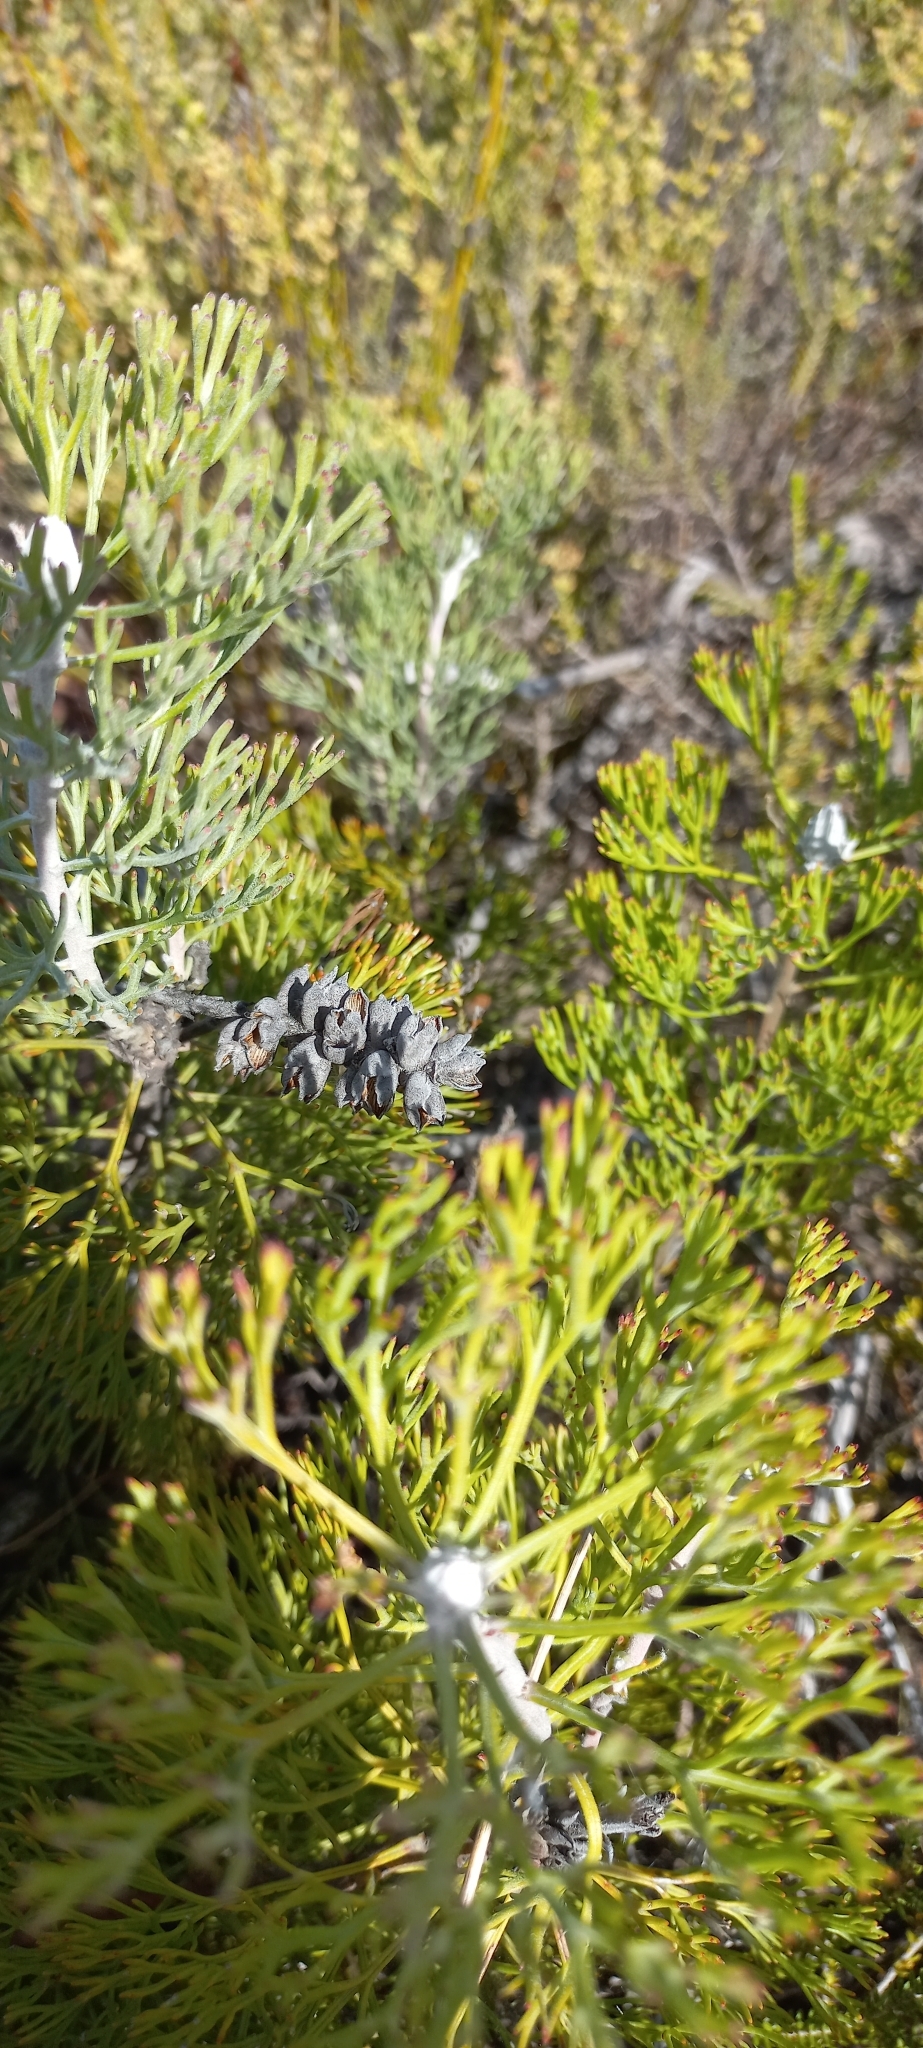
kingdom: Plantae
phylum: Tracheophyta
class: Magnoliopsida
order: Proteales
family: Proteaceae
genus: Paranomus
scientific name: Paranomus bolusii
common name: Overberg sceptre
